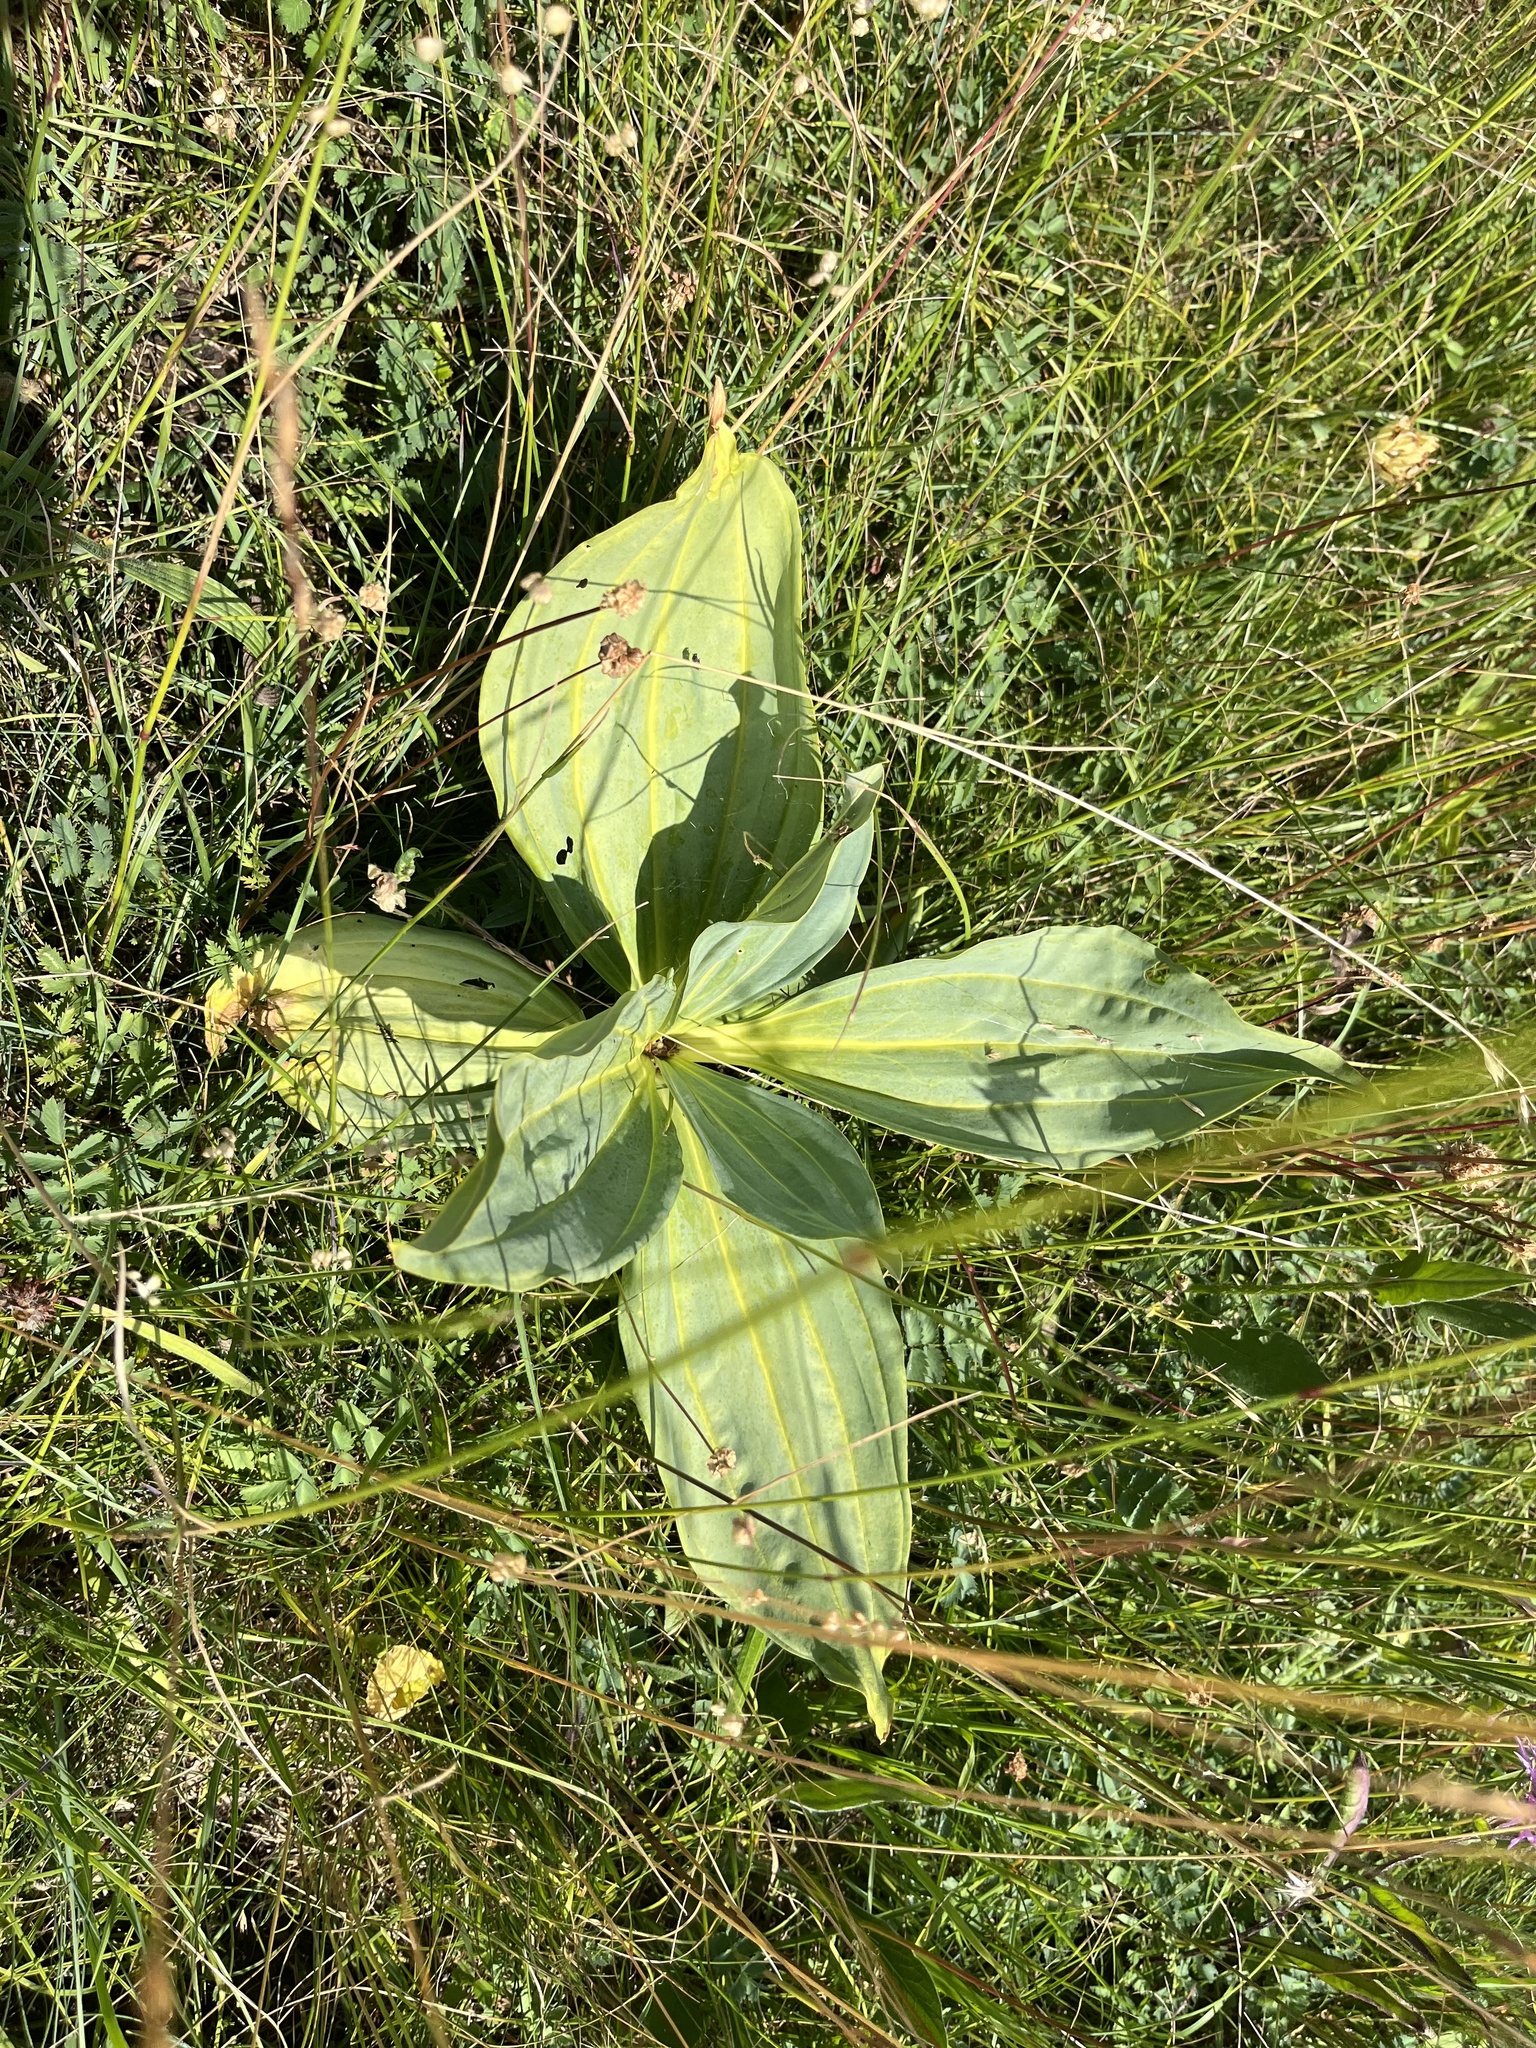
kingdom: Plantae
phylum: Tracheophyta
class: Magnoliopsida
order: Gentianales
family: Gentianaceae
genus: Gentiana
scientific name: Gentiana lutea
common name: Great yellow gentian
